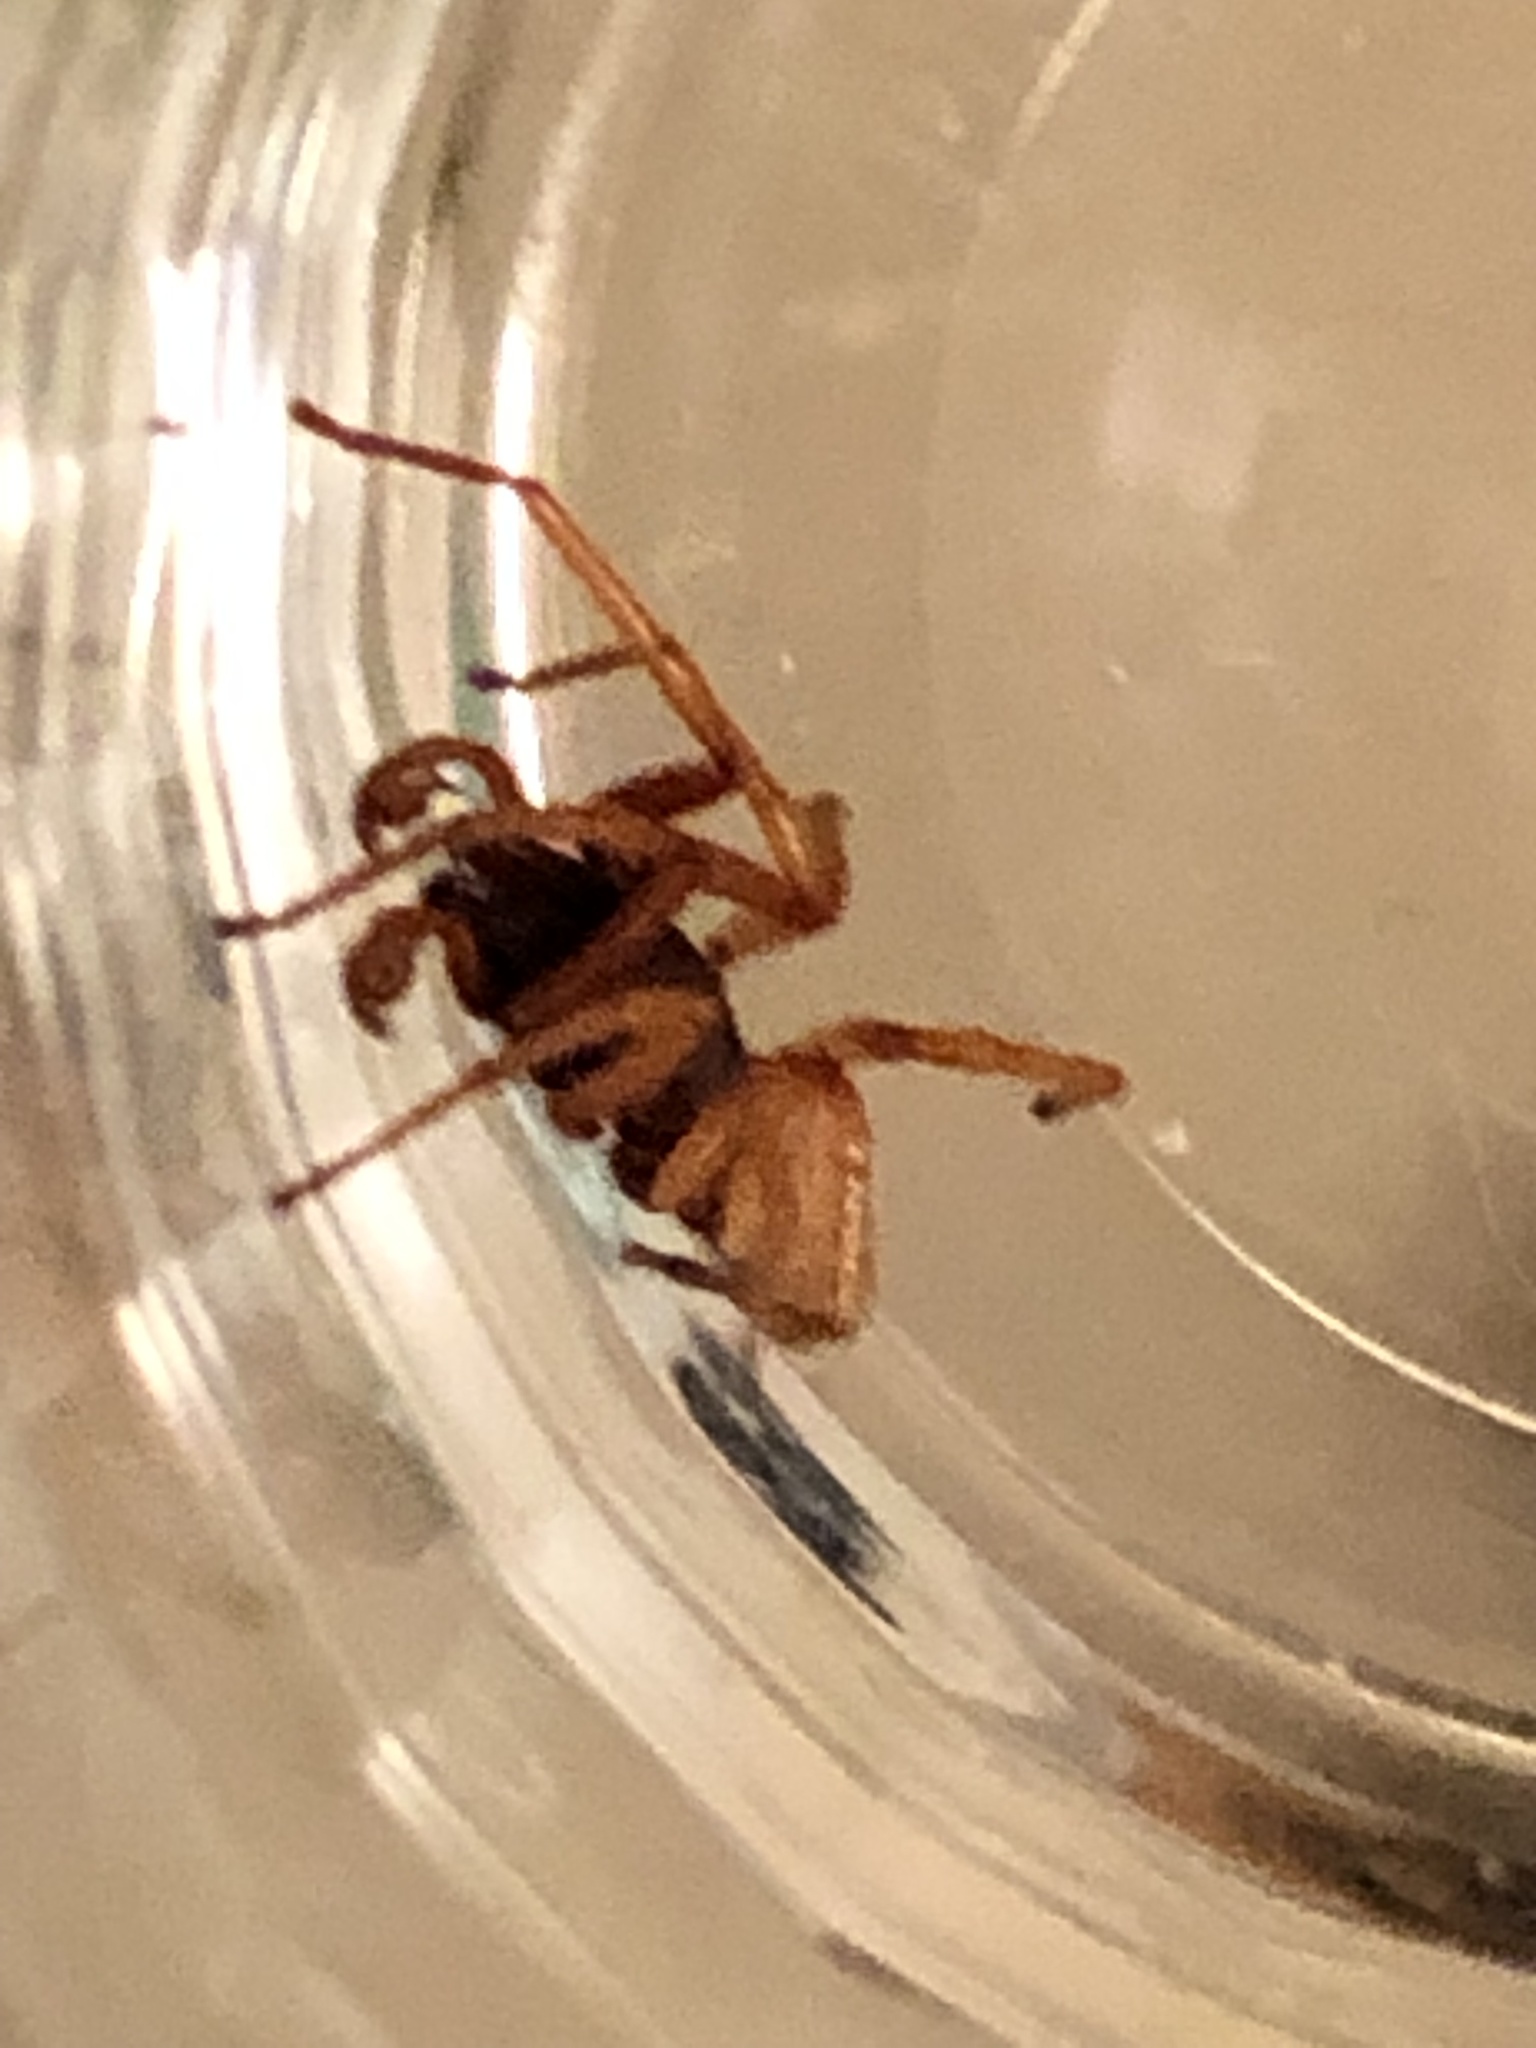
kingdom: Animalia
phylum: Arthropoda
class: Arachnida
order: Araneae
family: Dysderidae
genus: Dysdera
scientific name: Dysdera crocata
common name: Woodlouse spider
